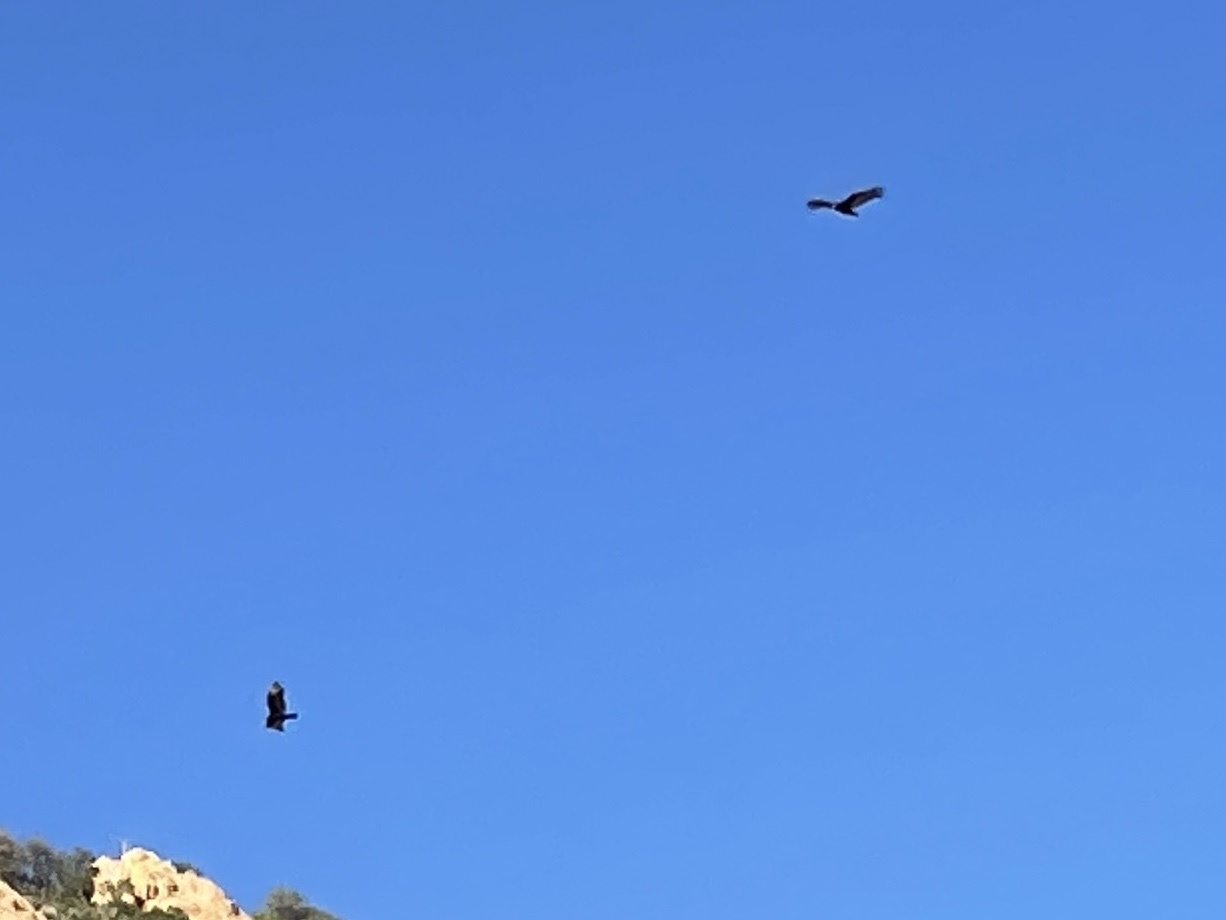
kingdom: Animalia
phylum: Chordata
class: Aves
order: Accipitriformes
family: Cathartidae
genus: Cathartes
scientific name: Cathartes aura
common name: Turkey vulture
